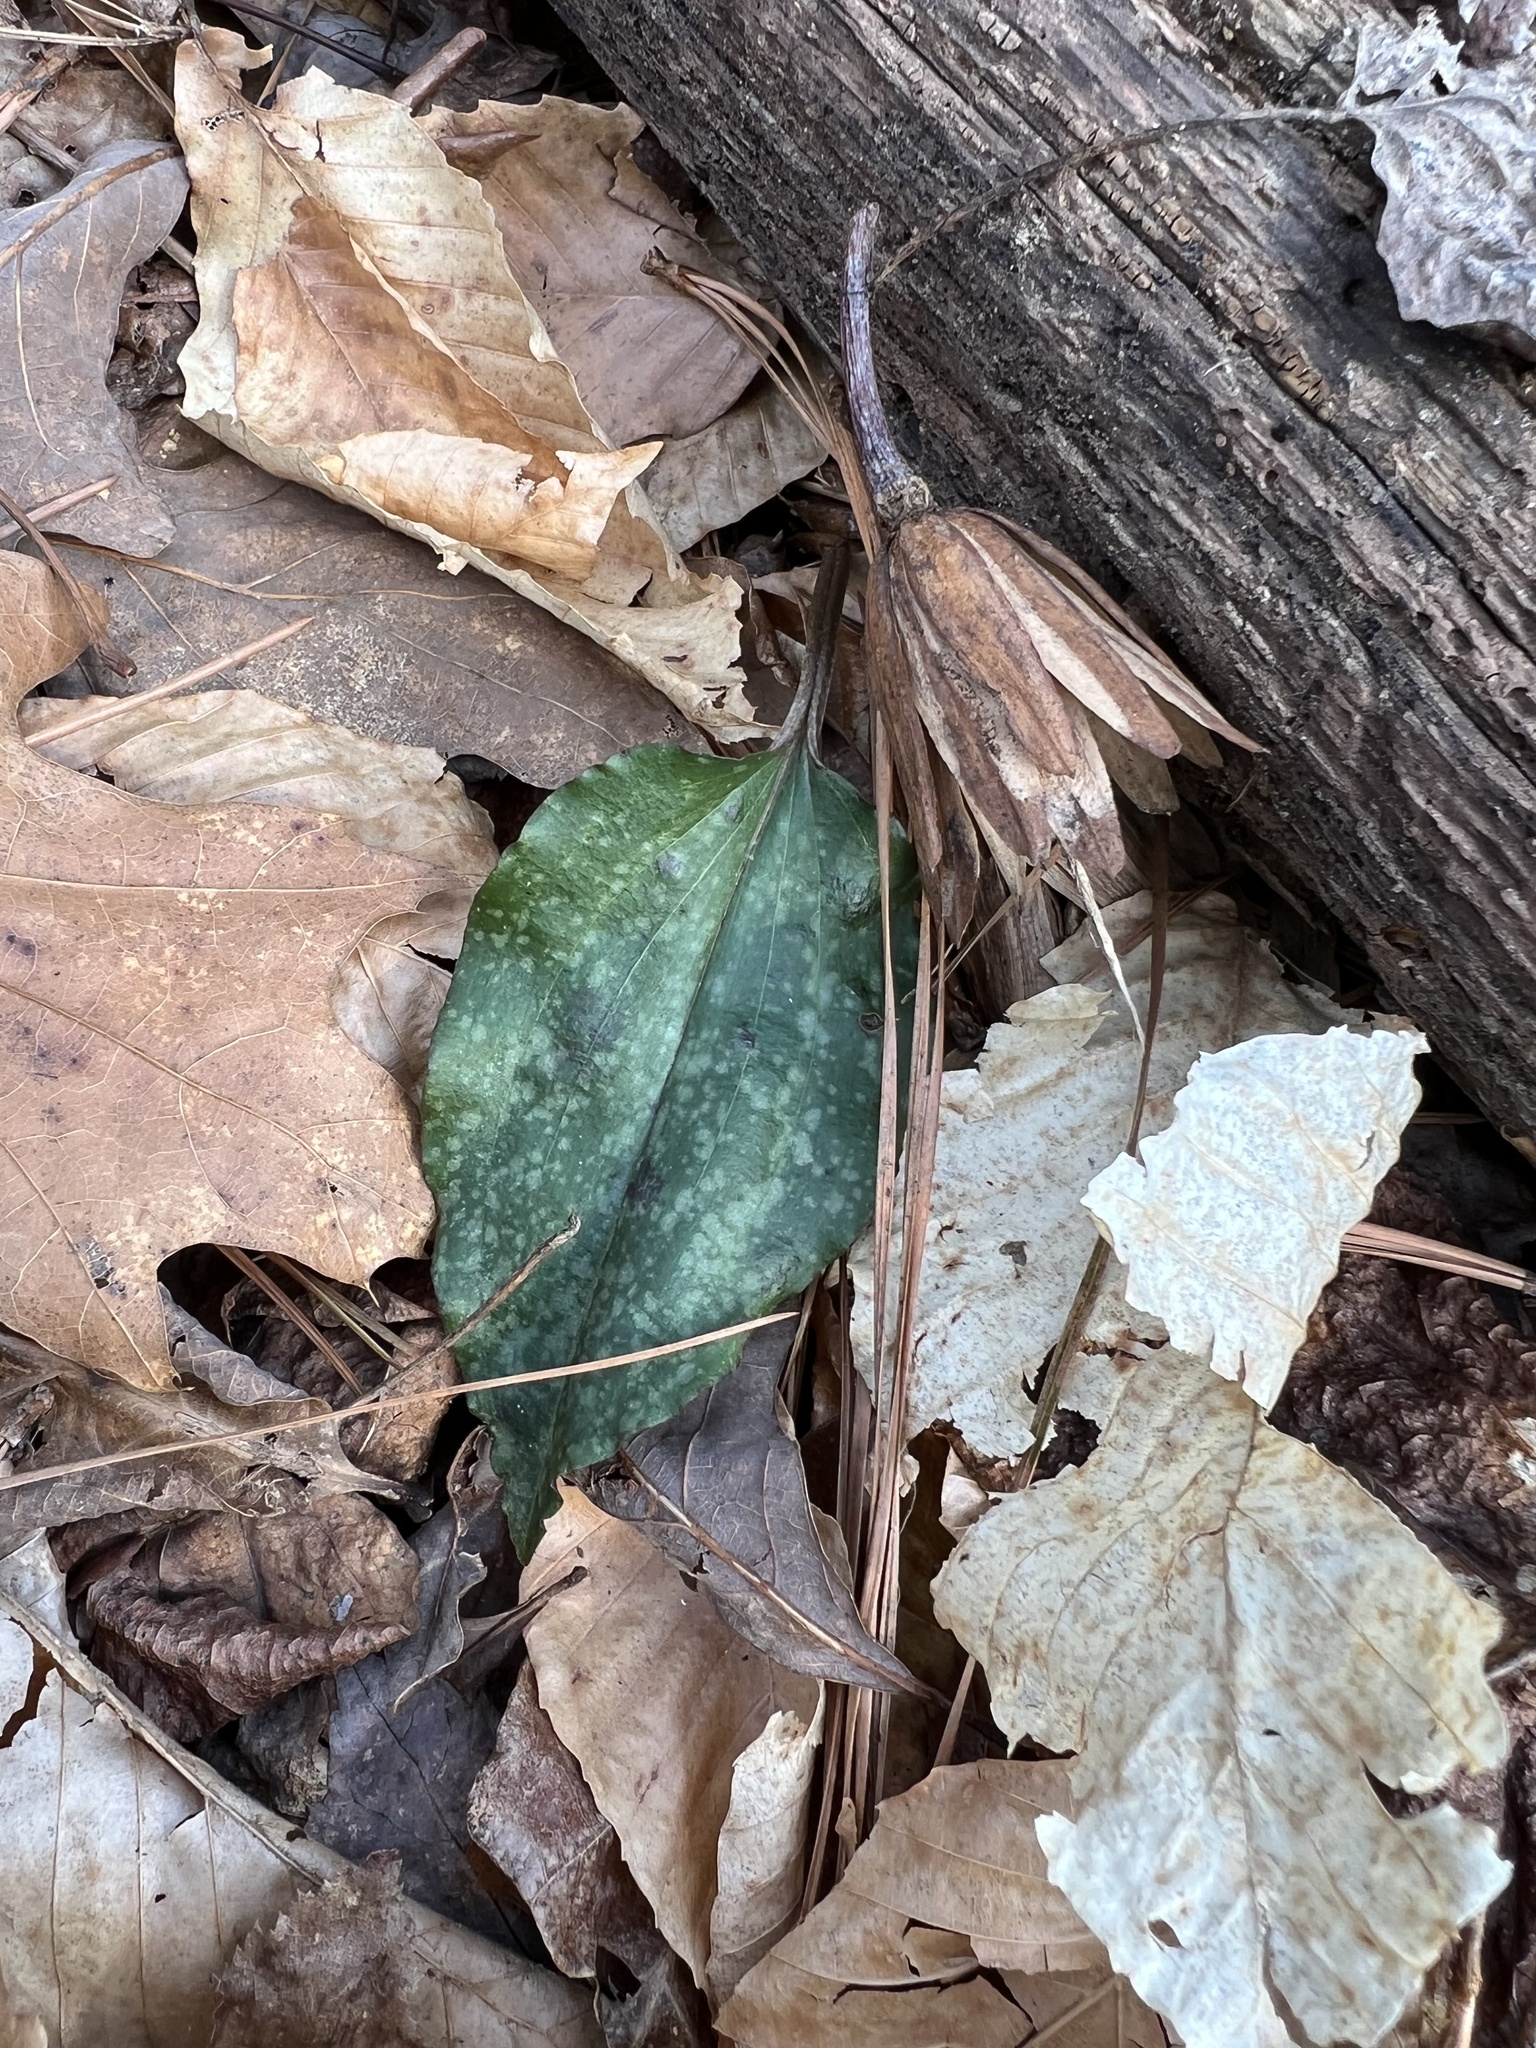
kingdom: Plantae
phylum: Tracheophyta
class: Liliopsida
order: Asparagales
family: Orchidaceae
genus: Tipularia
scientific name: Tipularia discolor
